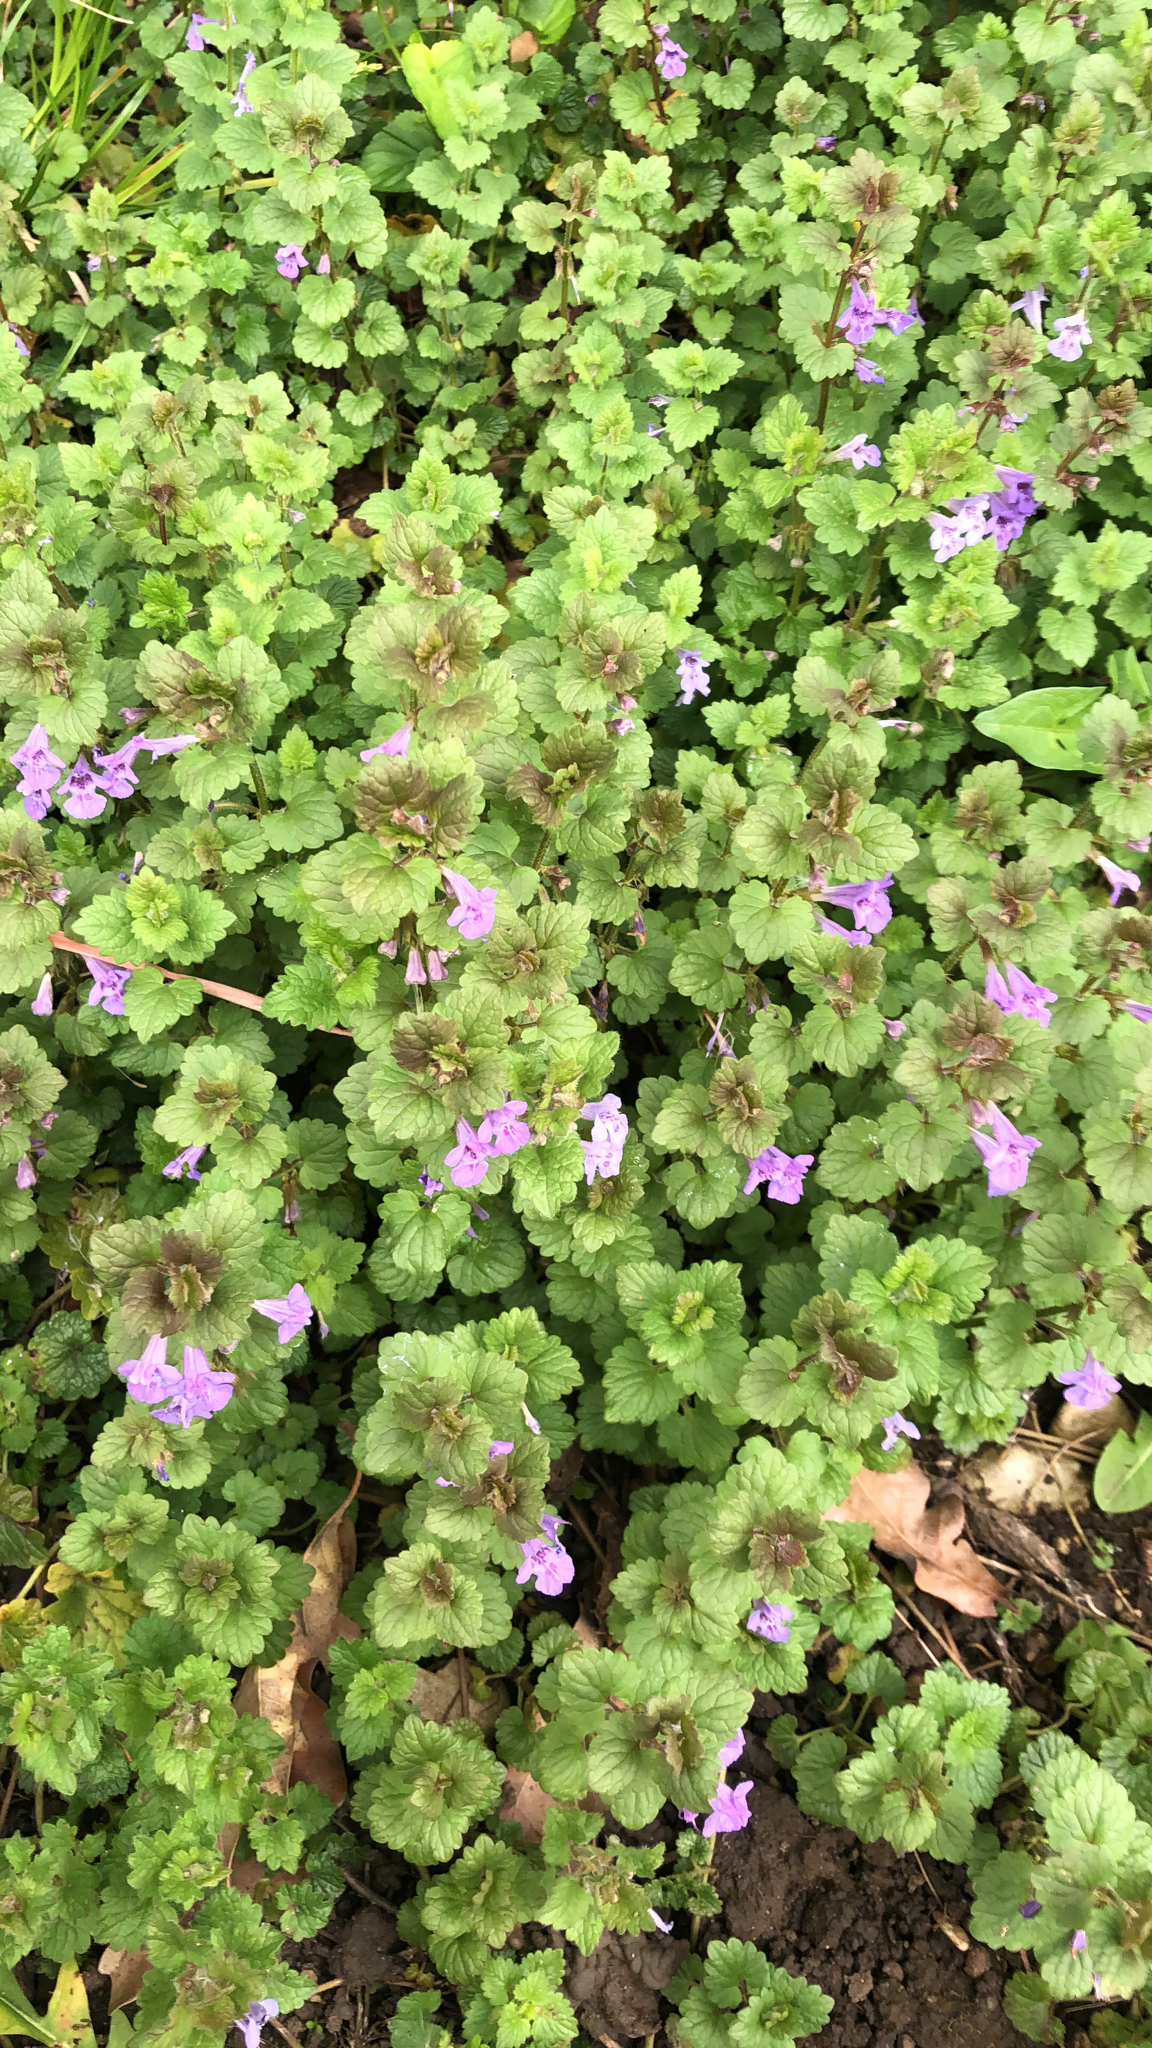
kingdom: Plantae
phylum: Tracheophyta
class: Magnoliopsida
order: Lamiales
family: Lamiaceae
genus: Glechoma
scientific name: Glechoma hederacea
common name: Ground ivy
